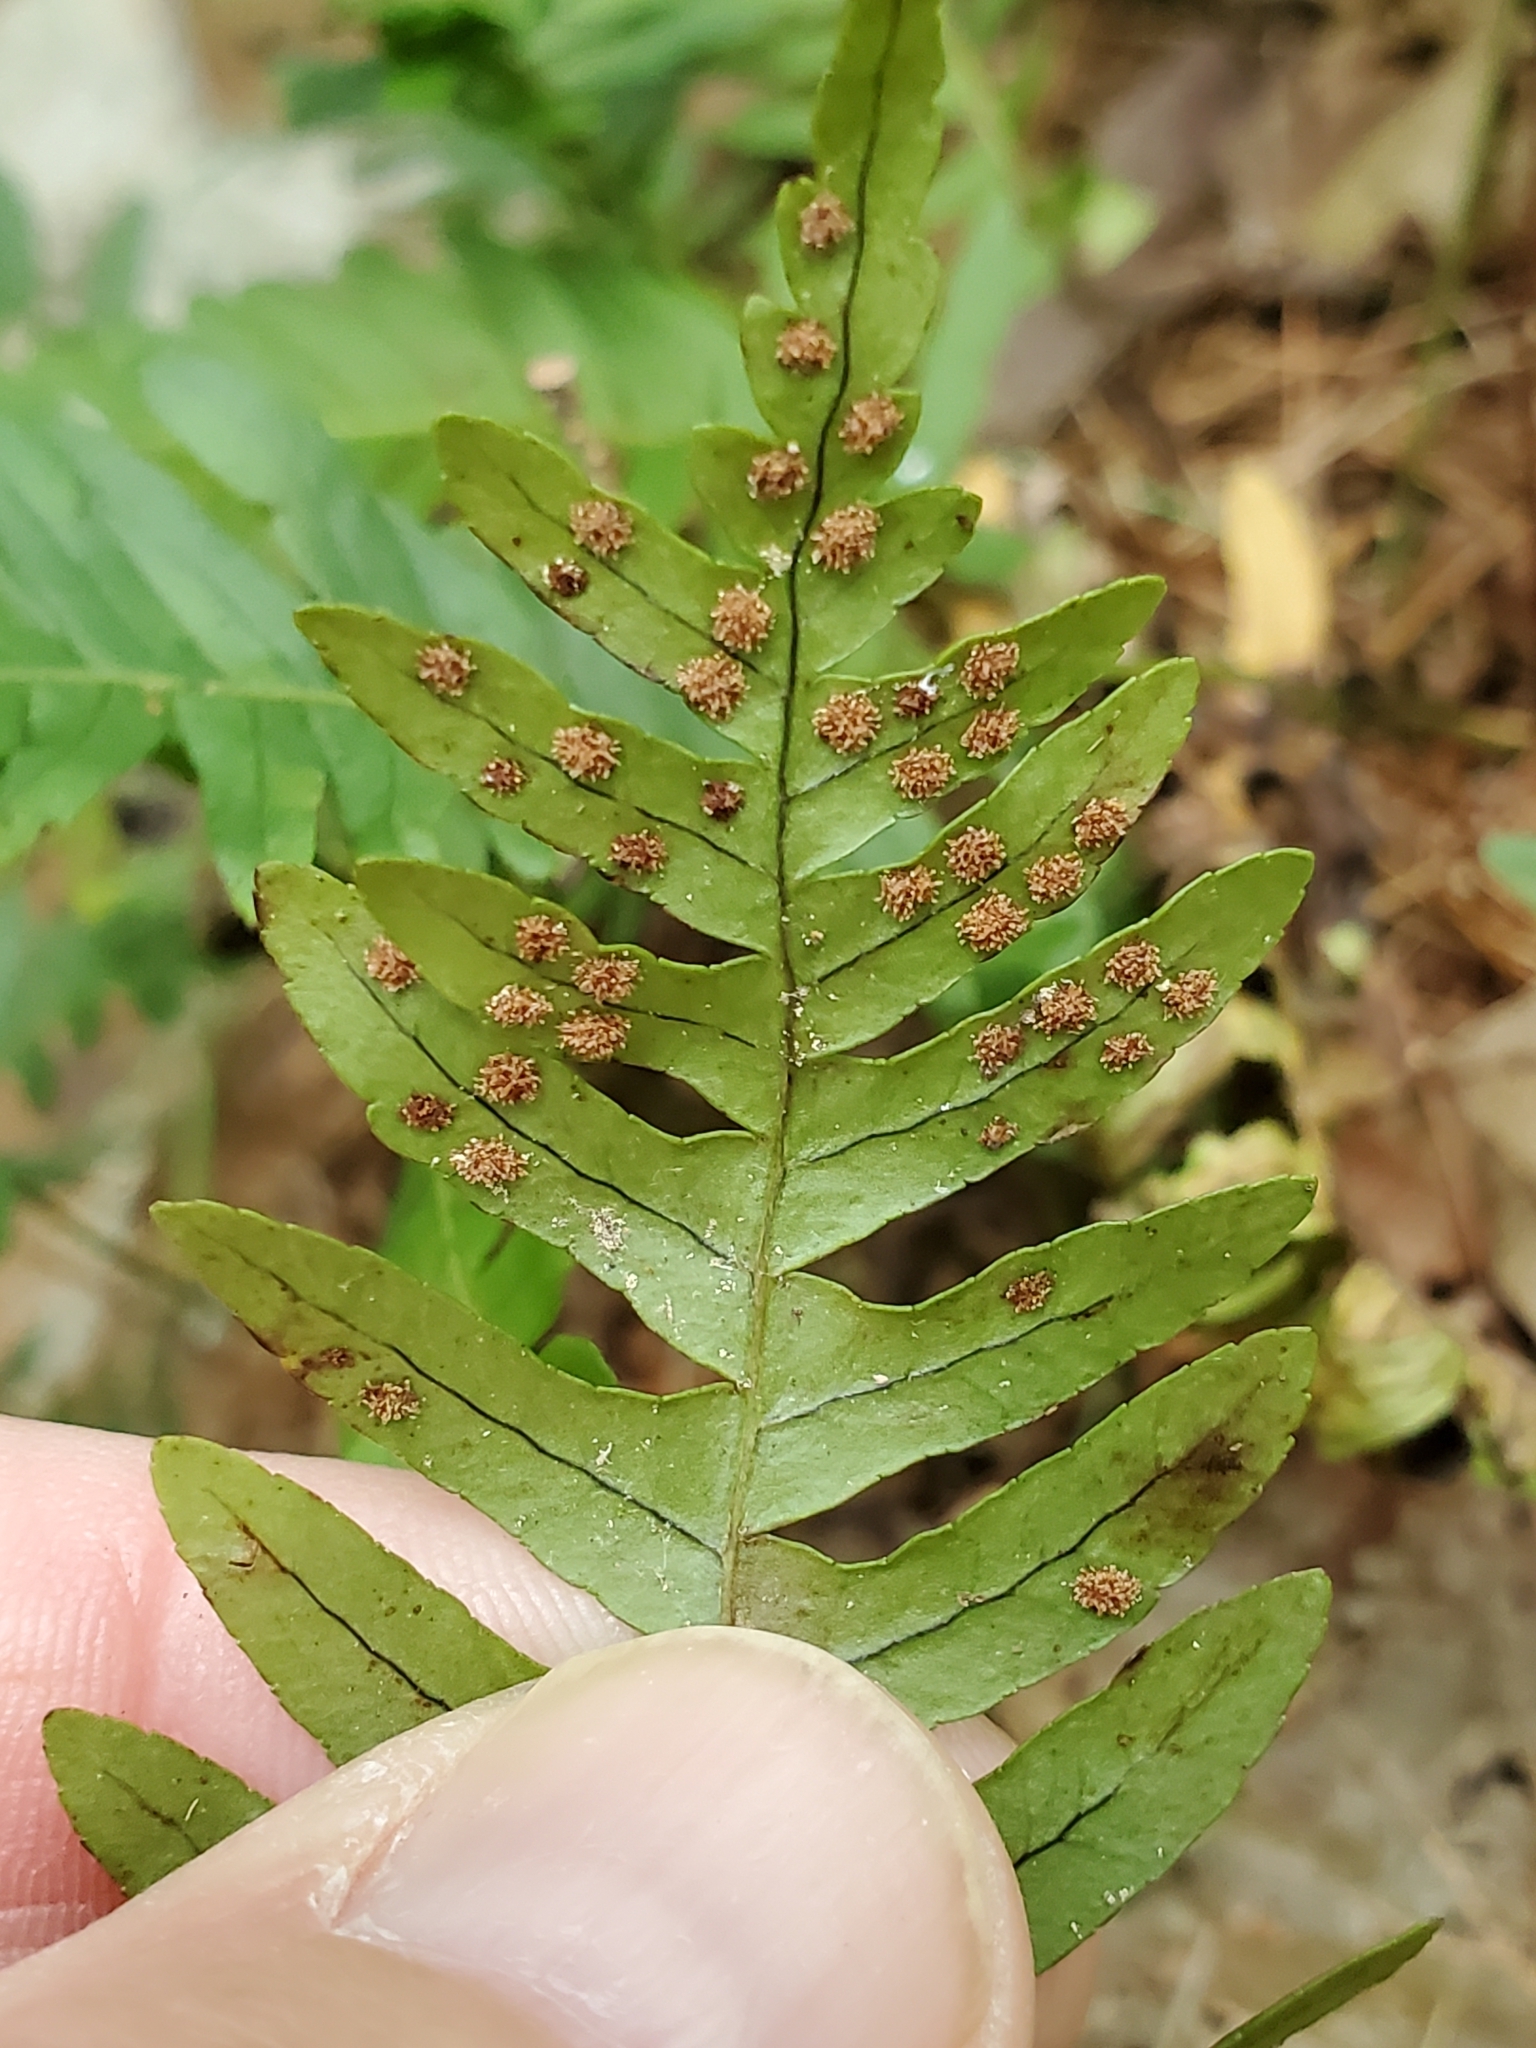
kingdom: Plantae
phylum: Tracheophyta
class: Polypodiopsida
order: Polypodiales
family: Polypodiaceae
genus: Polypodium
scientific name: Polypodium appalachianum
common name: Appalachian polypody
